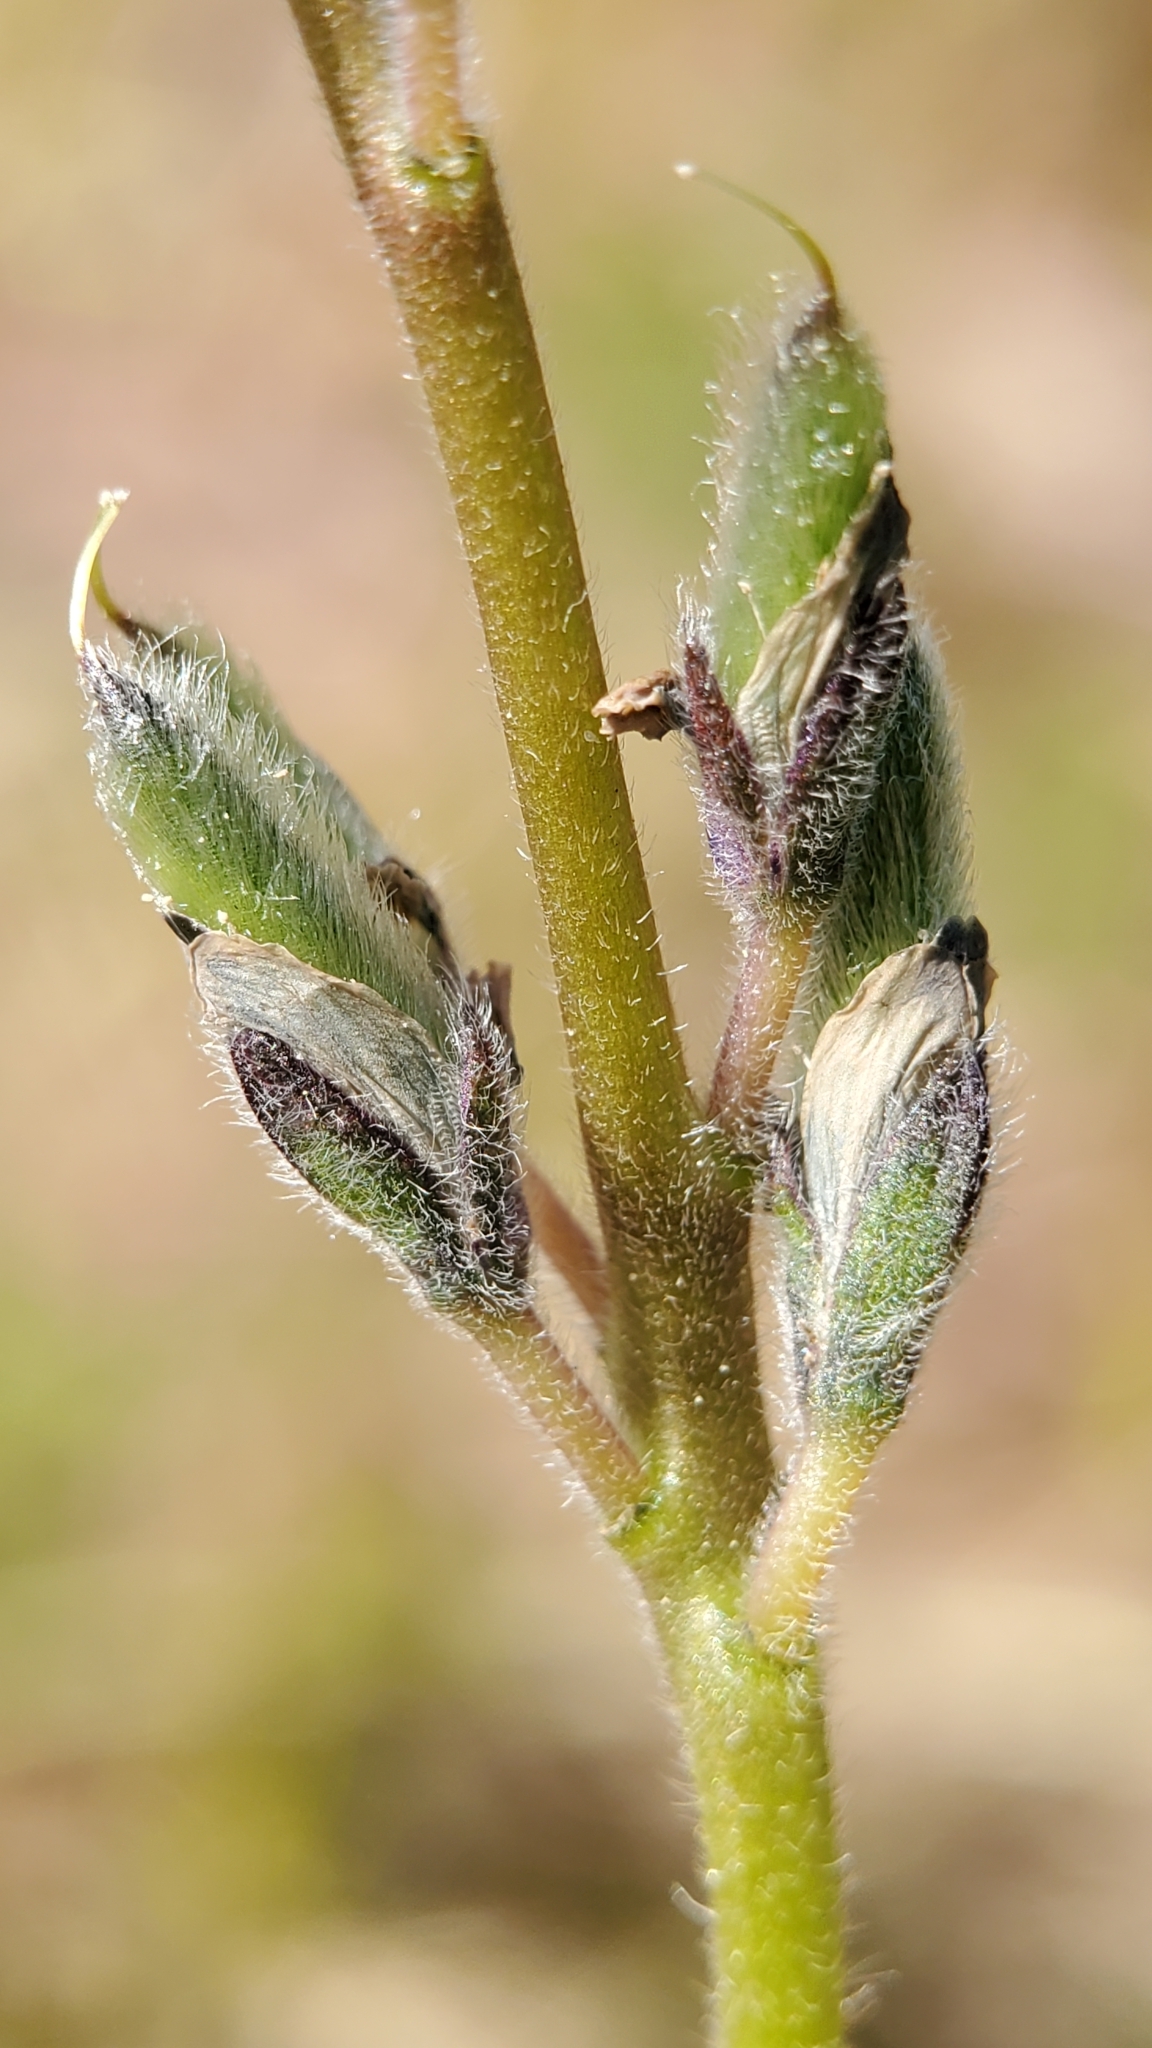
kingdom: Plantae
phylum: Tracheophyta
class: Magnoliopsida
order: Fabales
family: Fabaceae
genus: Lupinus
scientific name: Lupinus bicolor
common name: Miniature lupine
